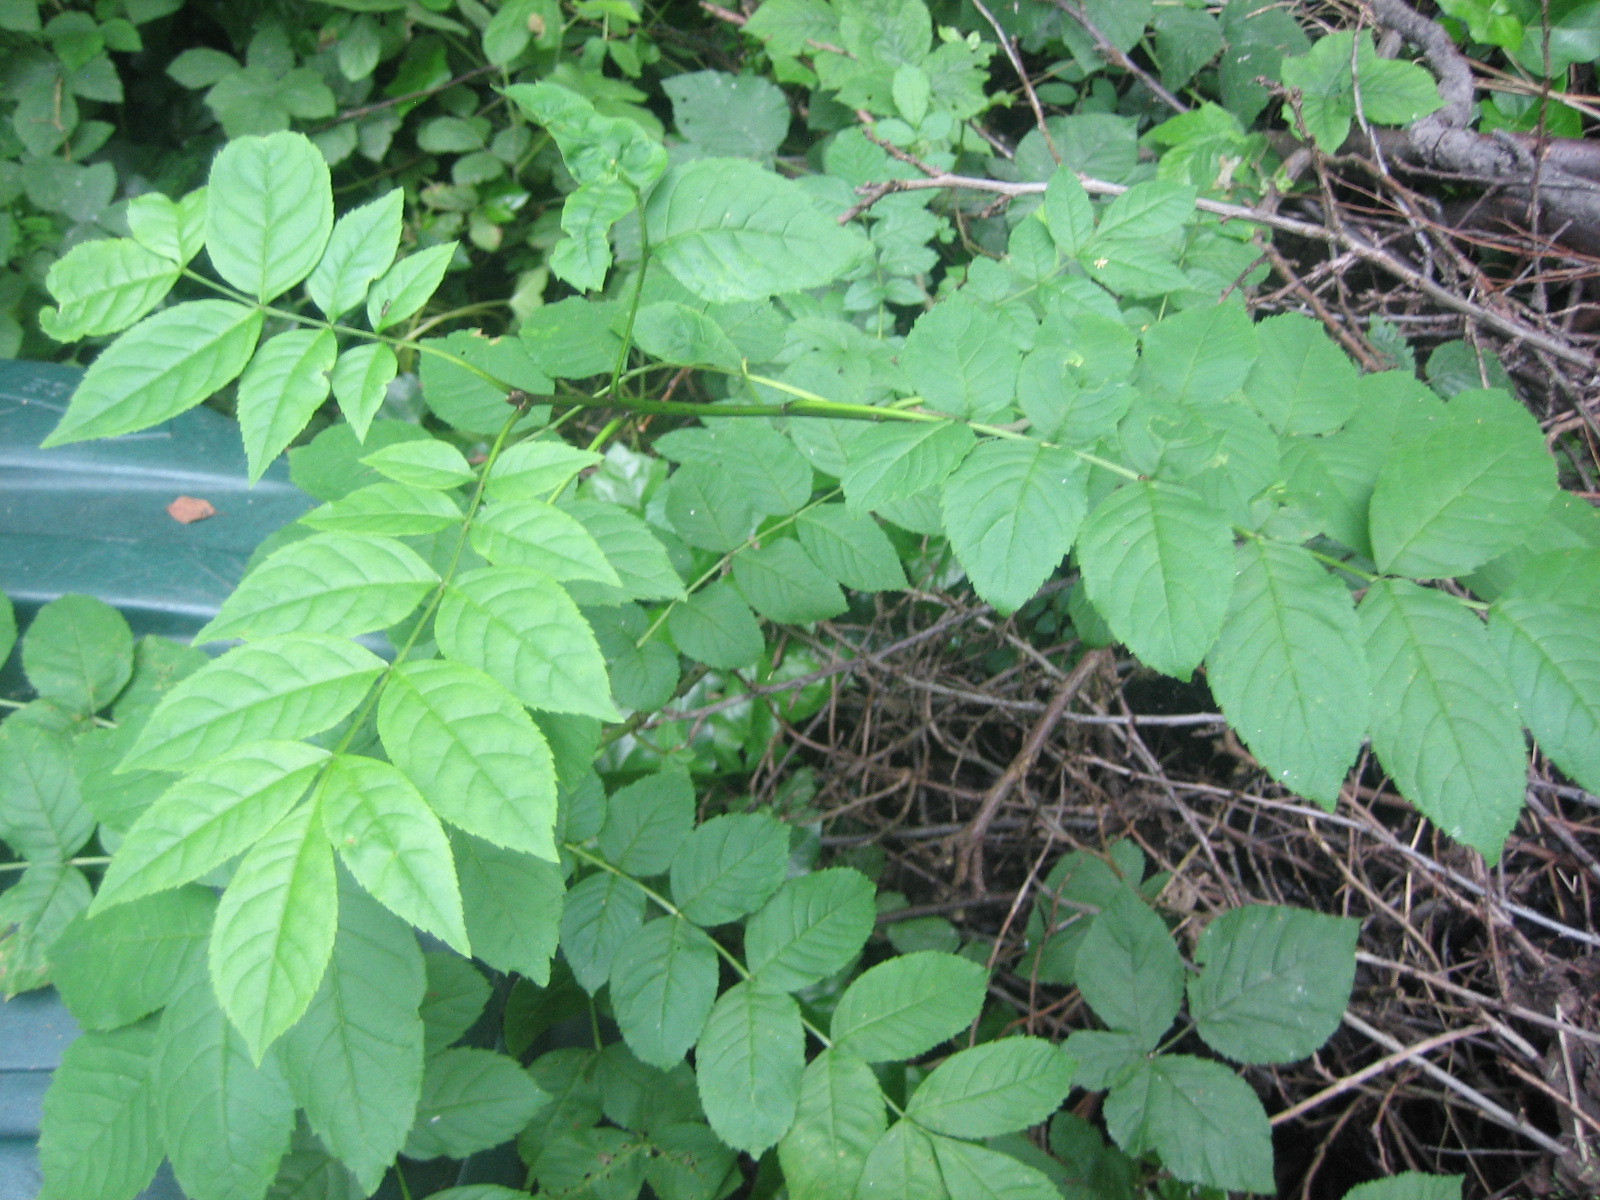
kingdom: Plantae
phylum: Tracheophyta
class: Magnoliopsida
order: Lamiales
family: Oleaceae
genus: Fraxinus
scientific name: Fraxinus excelsior
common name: European ash
